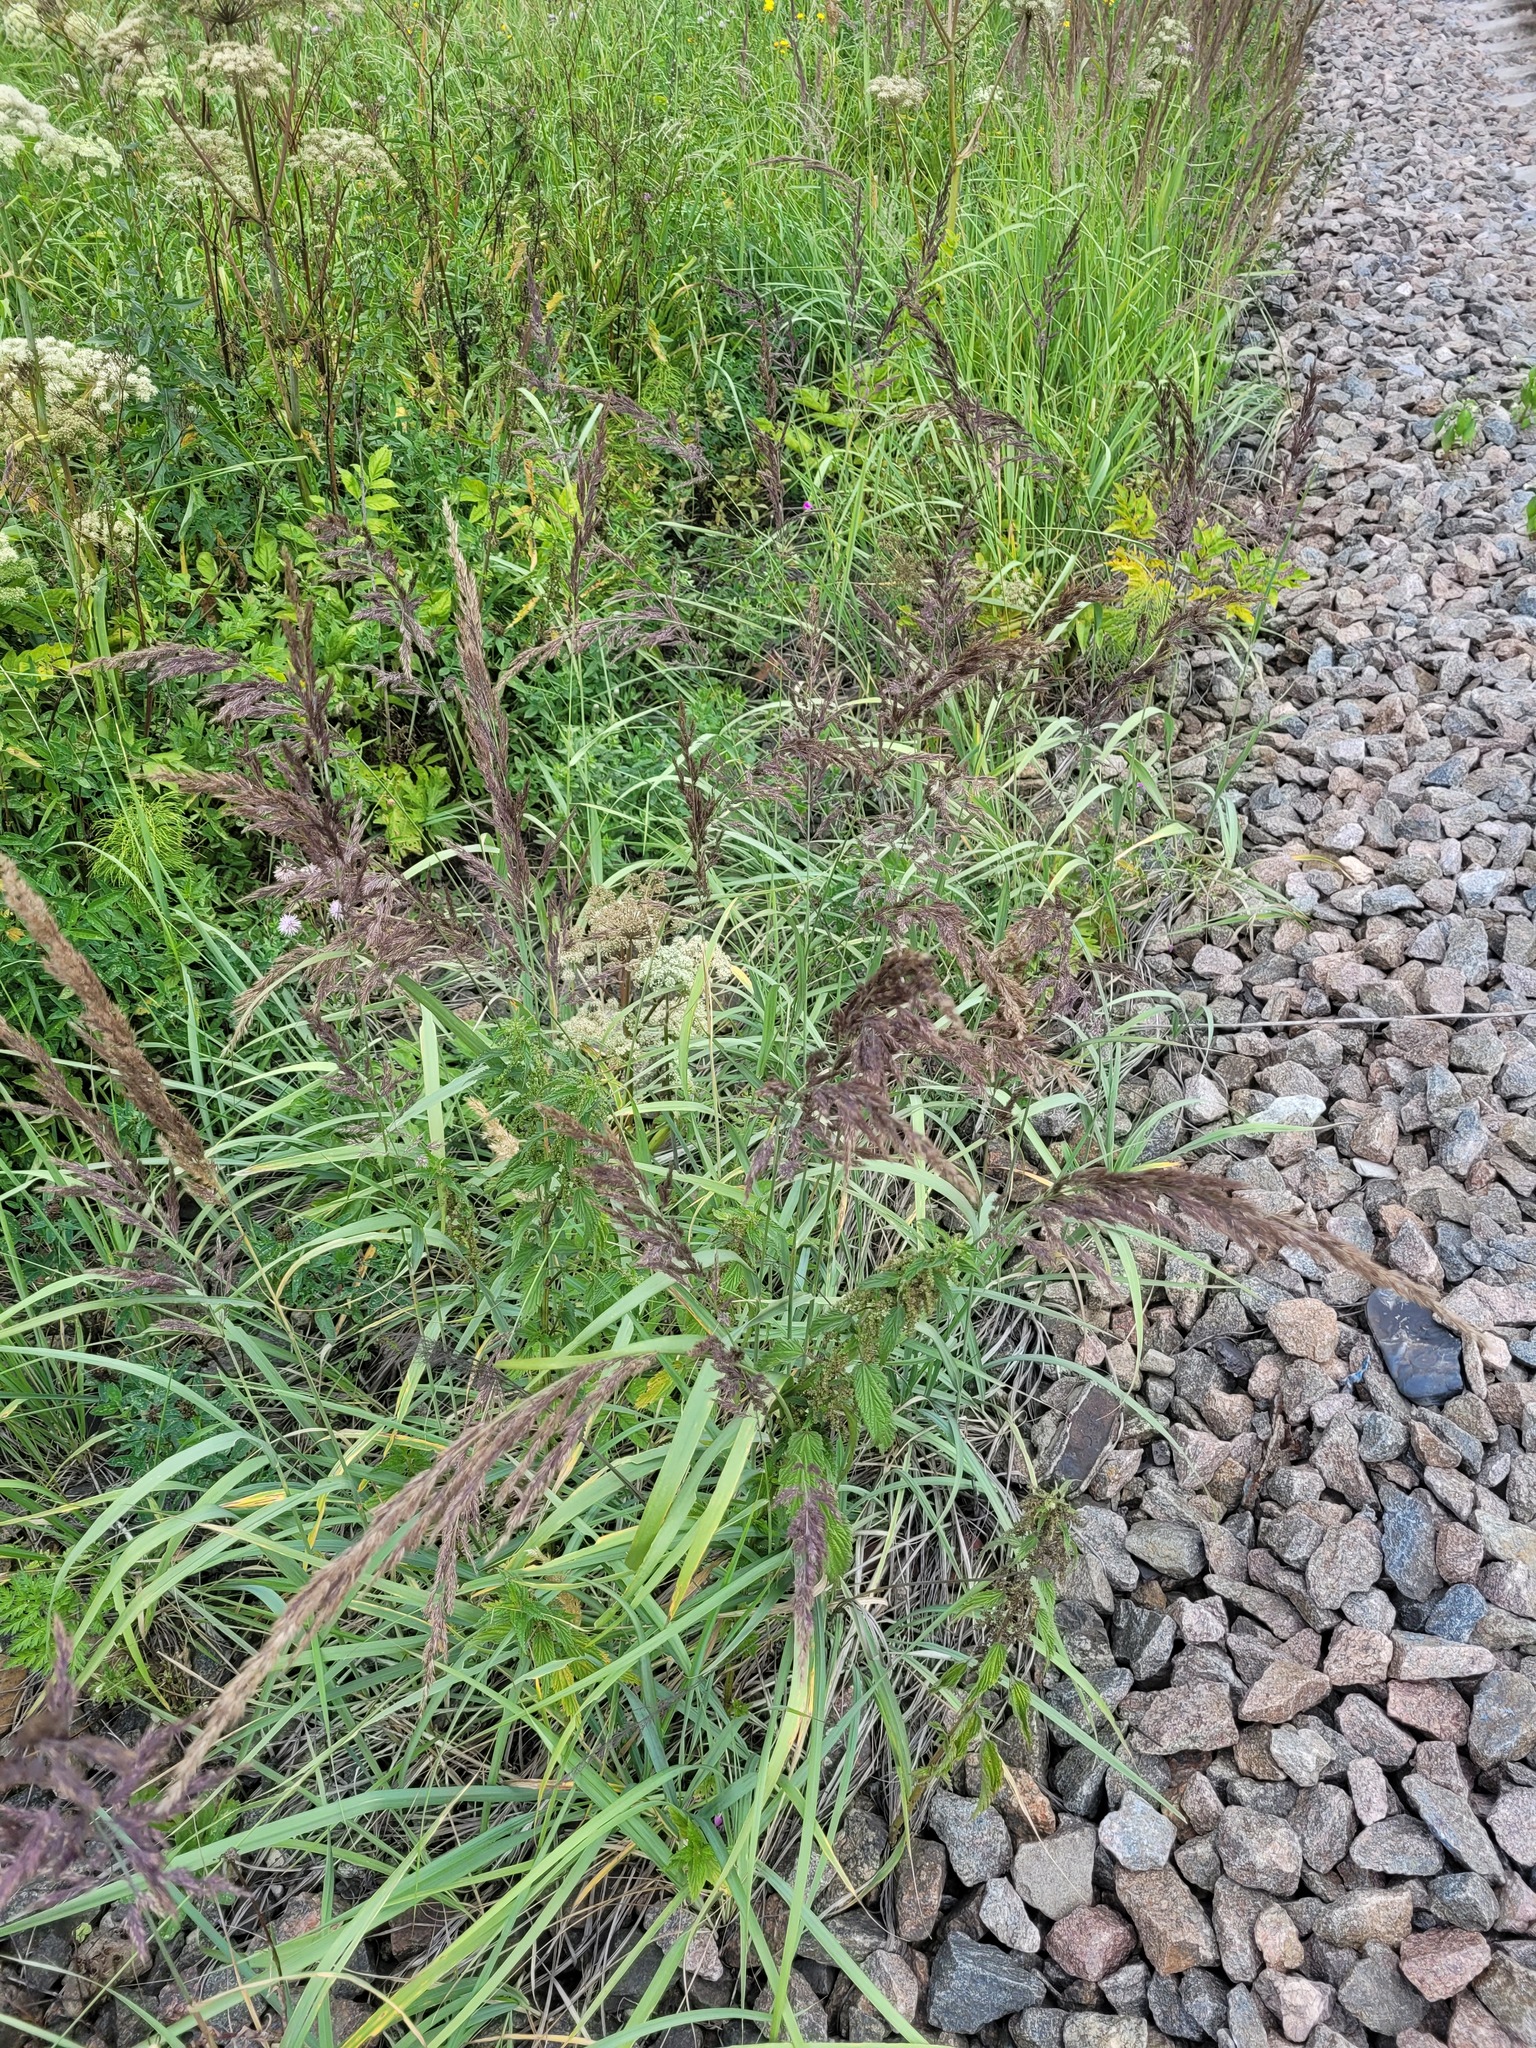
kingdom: Plantae
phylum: Tracheophyta
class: Liliopsida
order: Poales
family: Poaceae
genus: Calamagrostis
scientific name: Calamagrostis epigejos
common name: Wood small-reed
